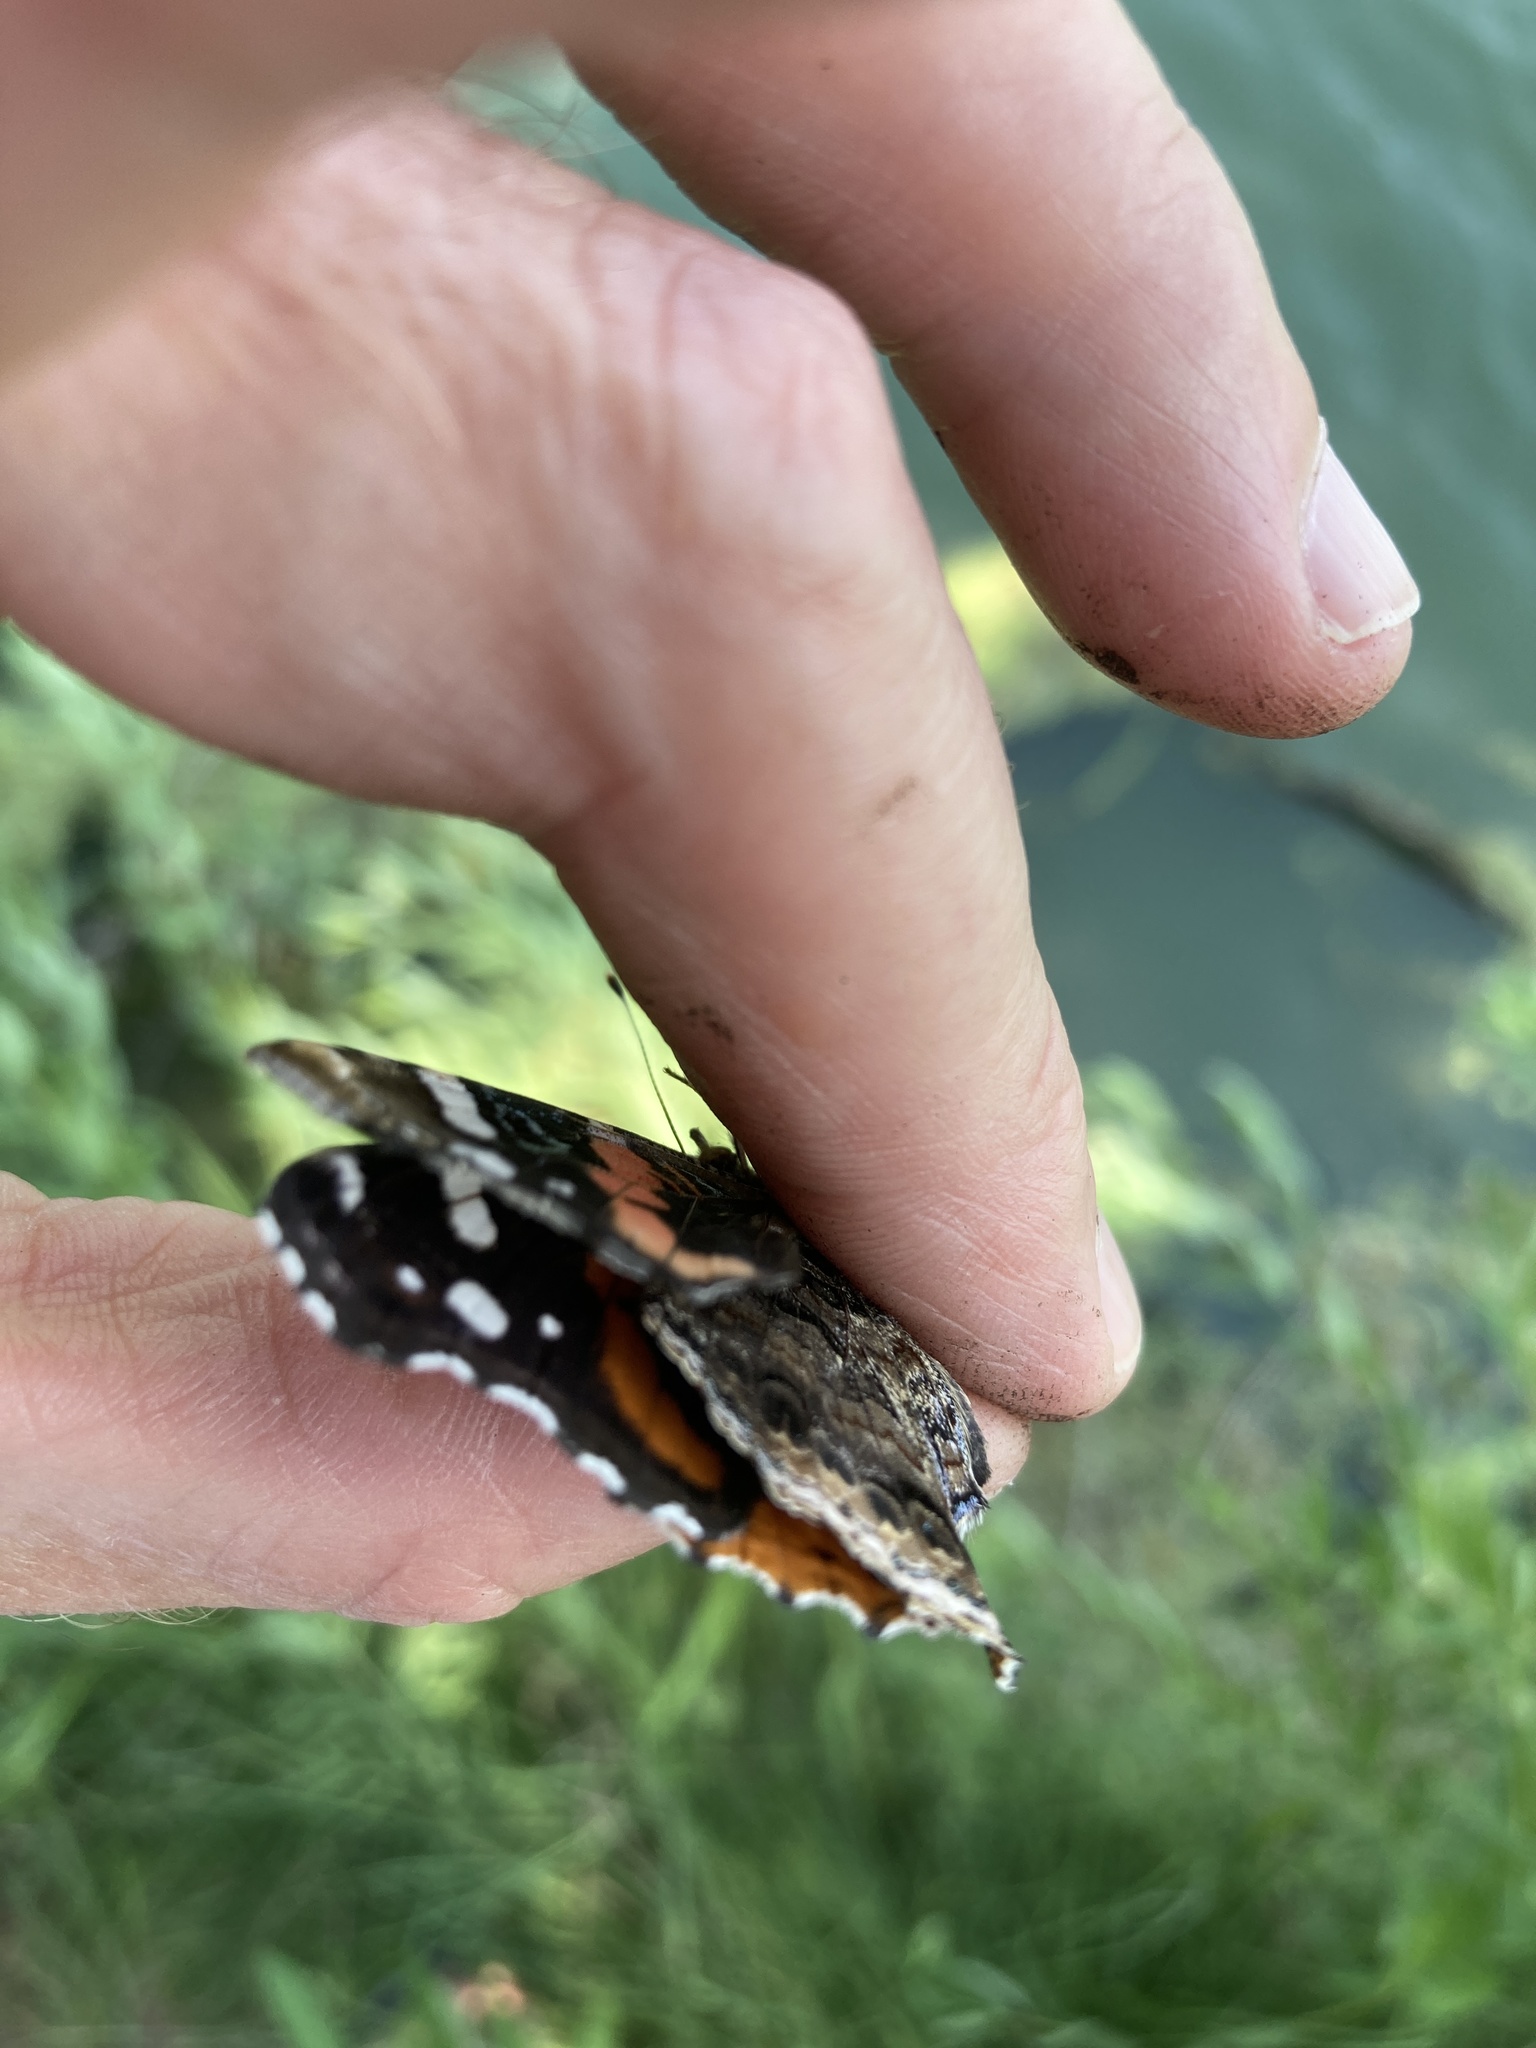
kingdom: Animalia
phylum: Arthropoda
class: Insecta
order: Lepidoptera
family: Nymphalidae
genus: Vanessa
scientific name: Vanessa atalanta
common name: Red admiral
